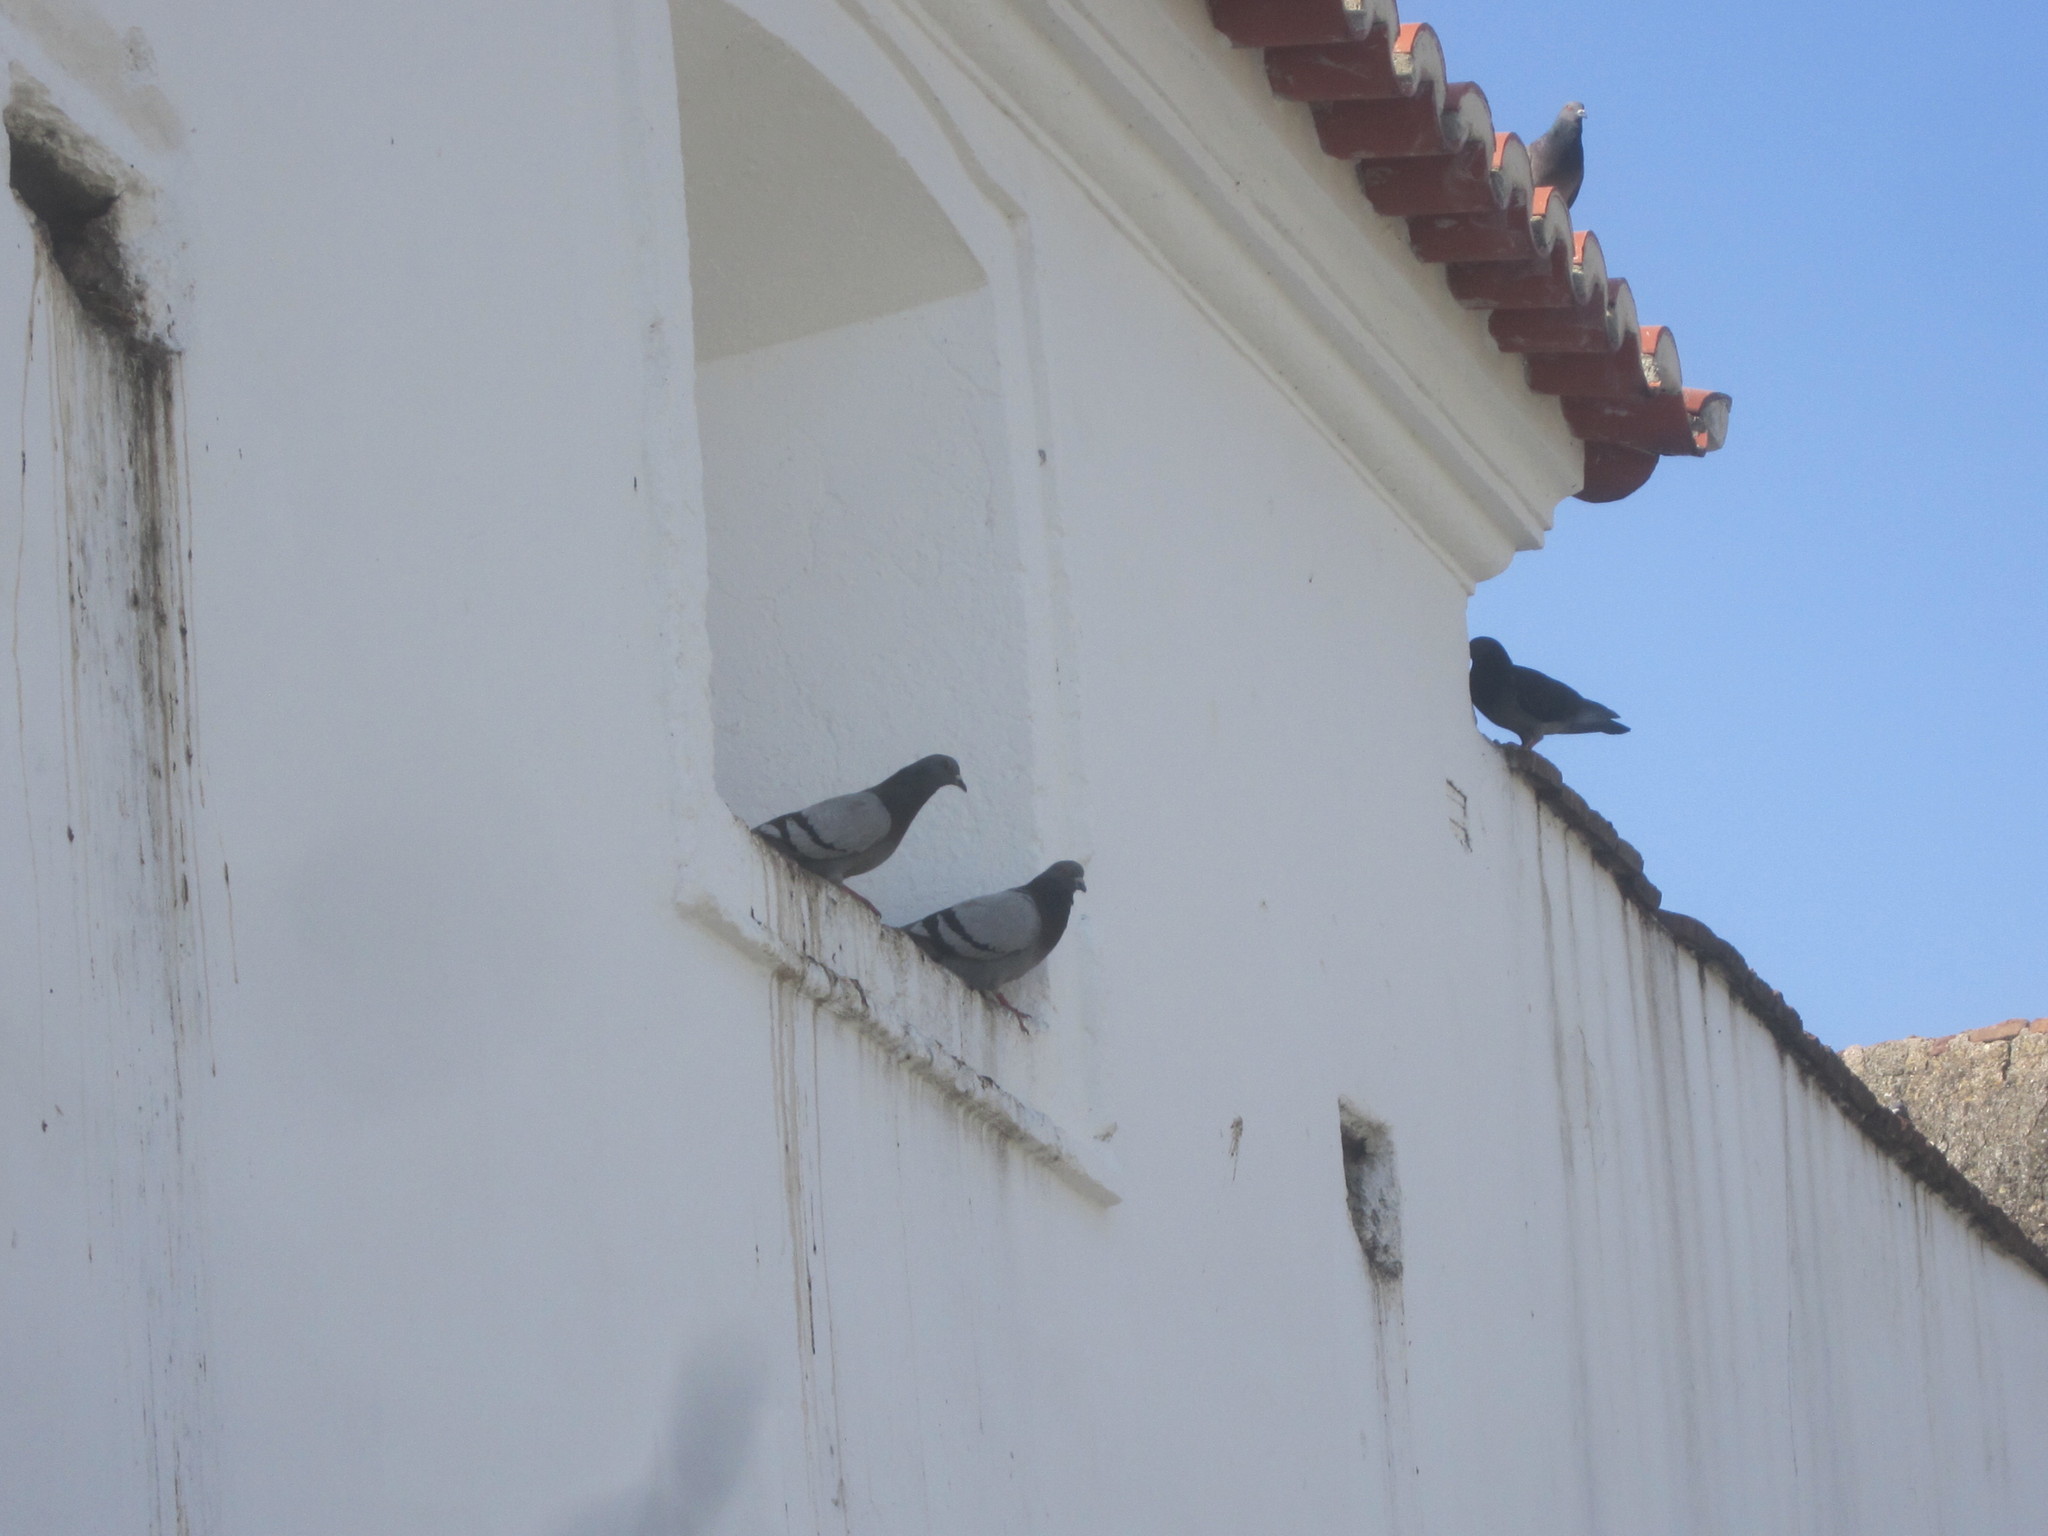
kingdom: Animalia
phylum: Chordata
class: Aves
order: Columbiformes
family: Columbidae
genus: Columba
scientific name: Columba livia
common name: Rock pigeon
